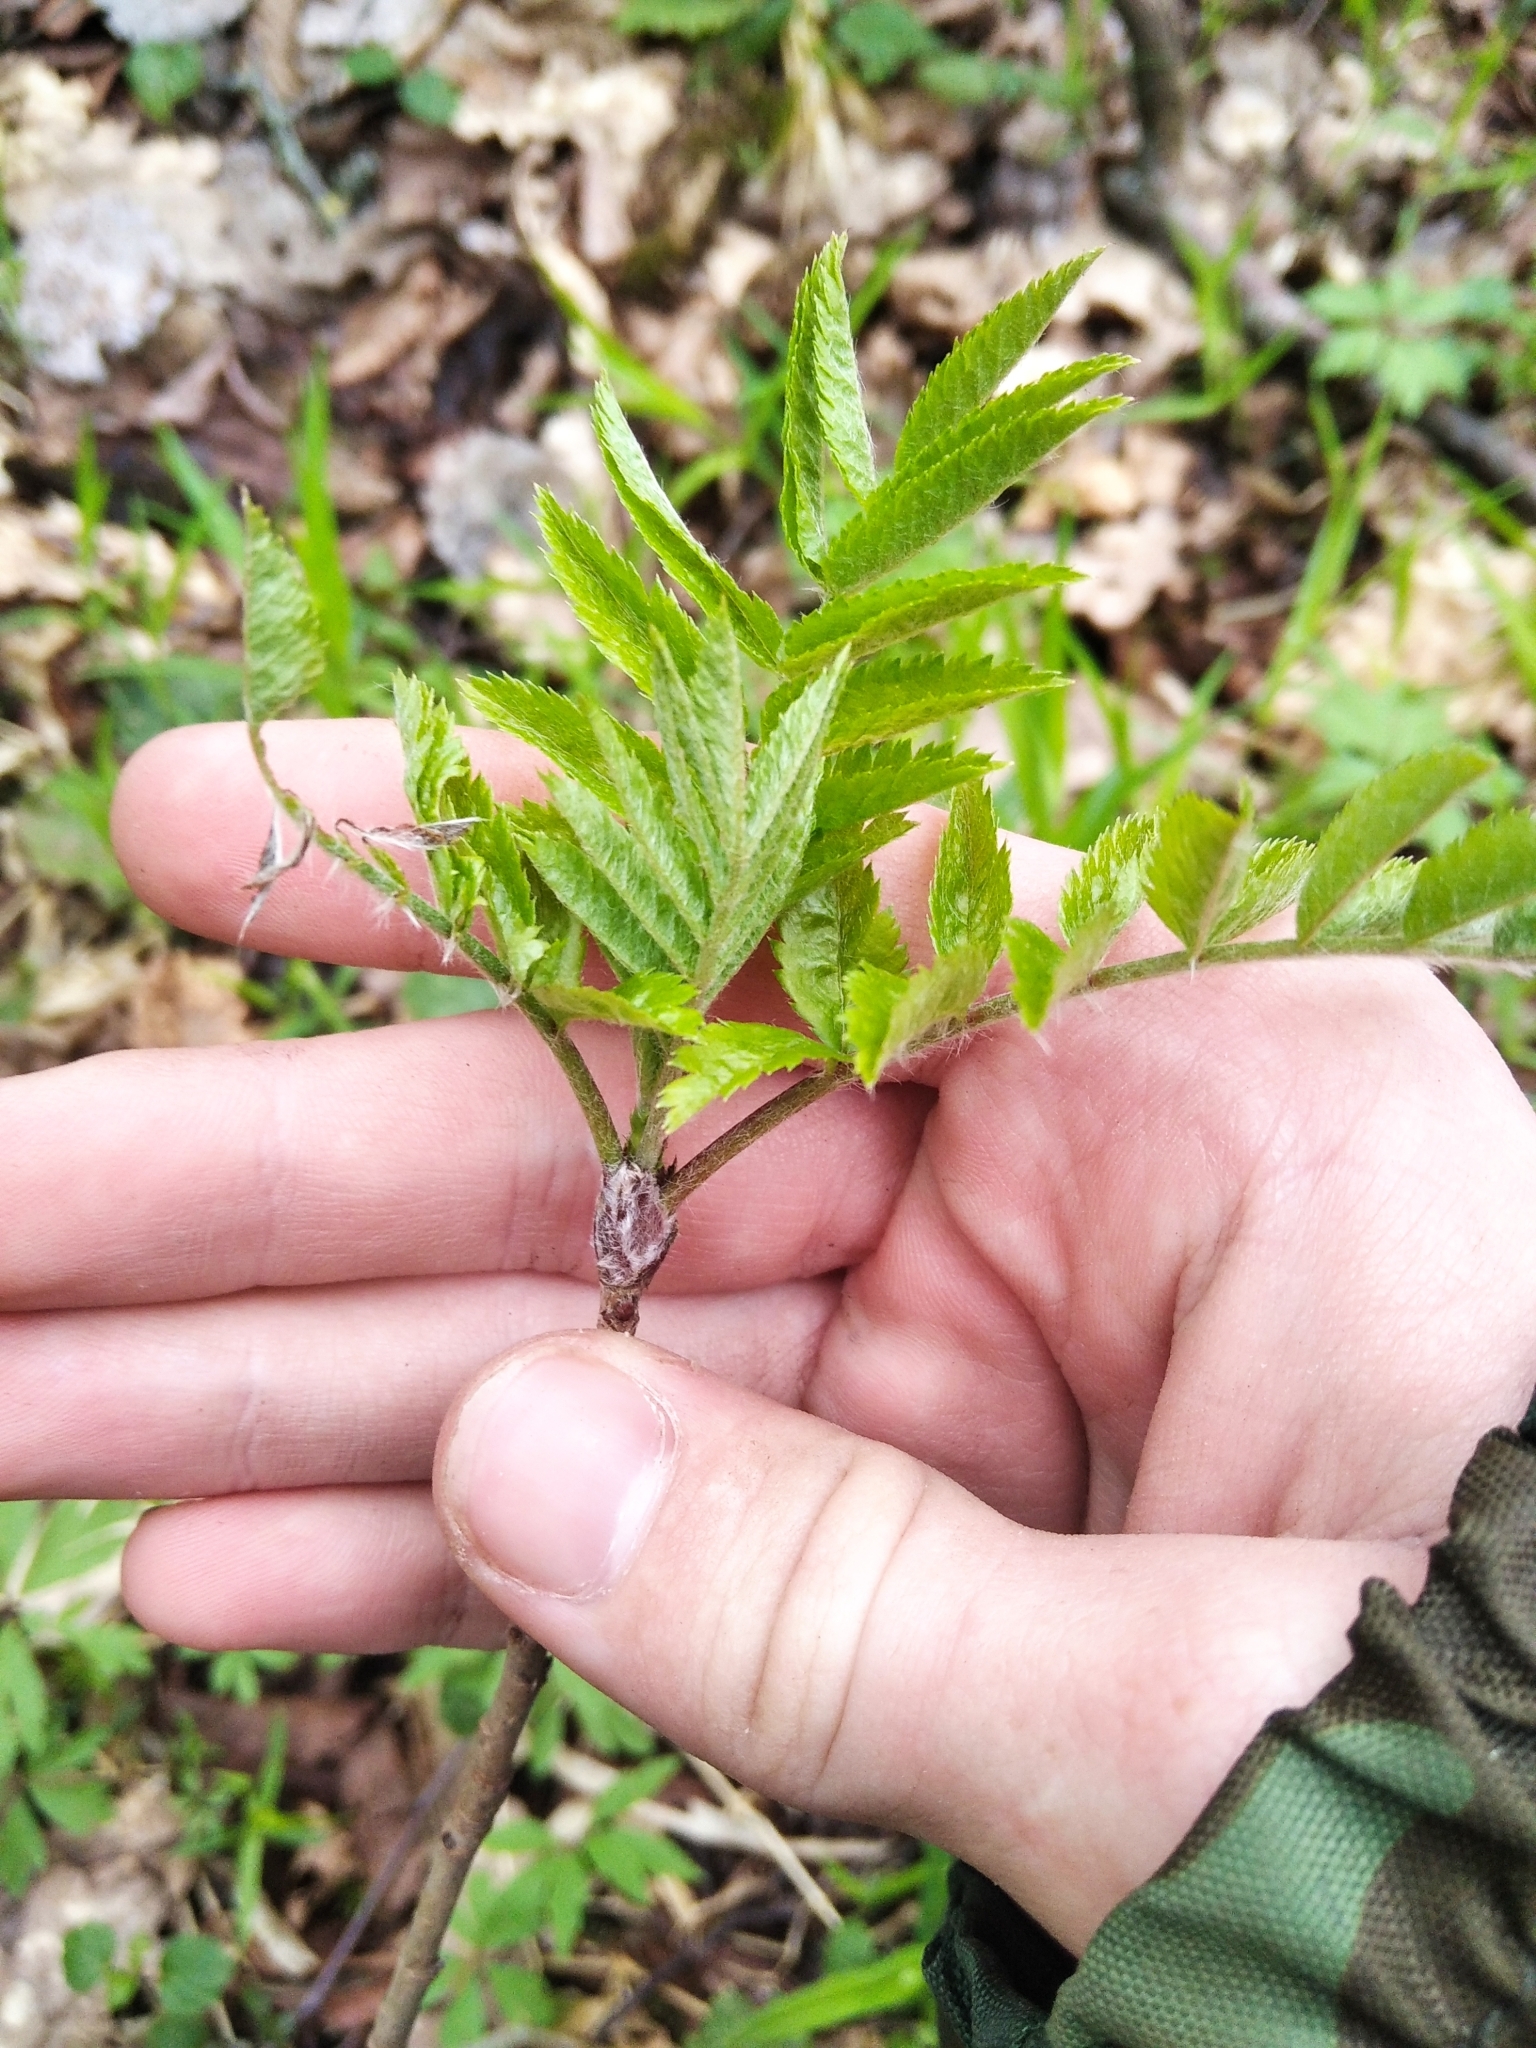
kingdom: Plantae
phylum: Tracheophyta
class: Magnoliopsida
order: Rosales
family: Rosaceae
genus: Sorbus
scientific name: Sorbus aucuparia
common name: Rowan
